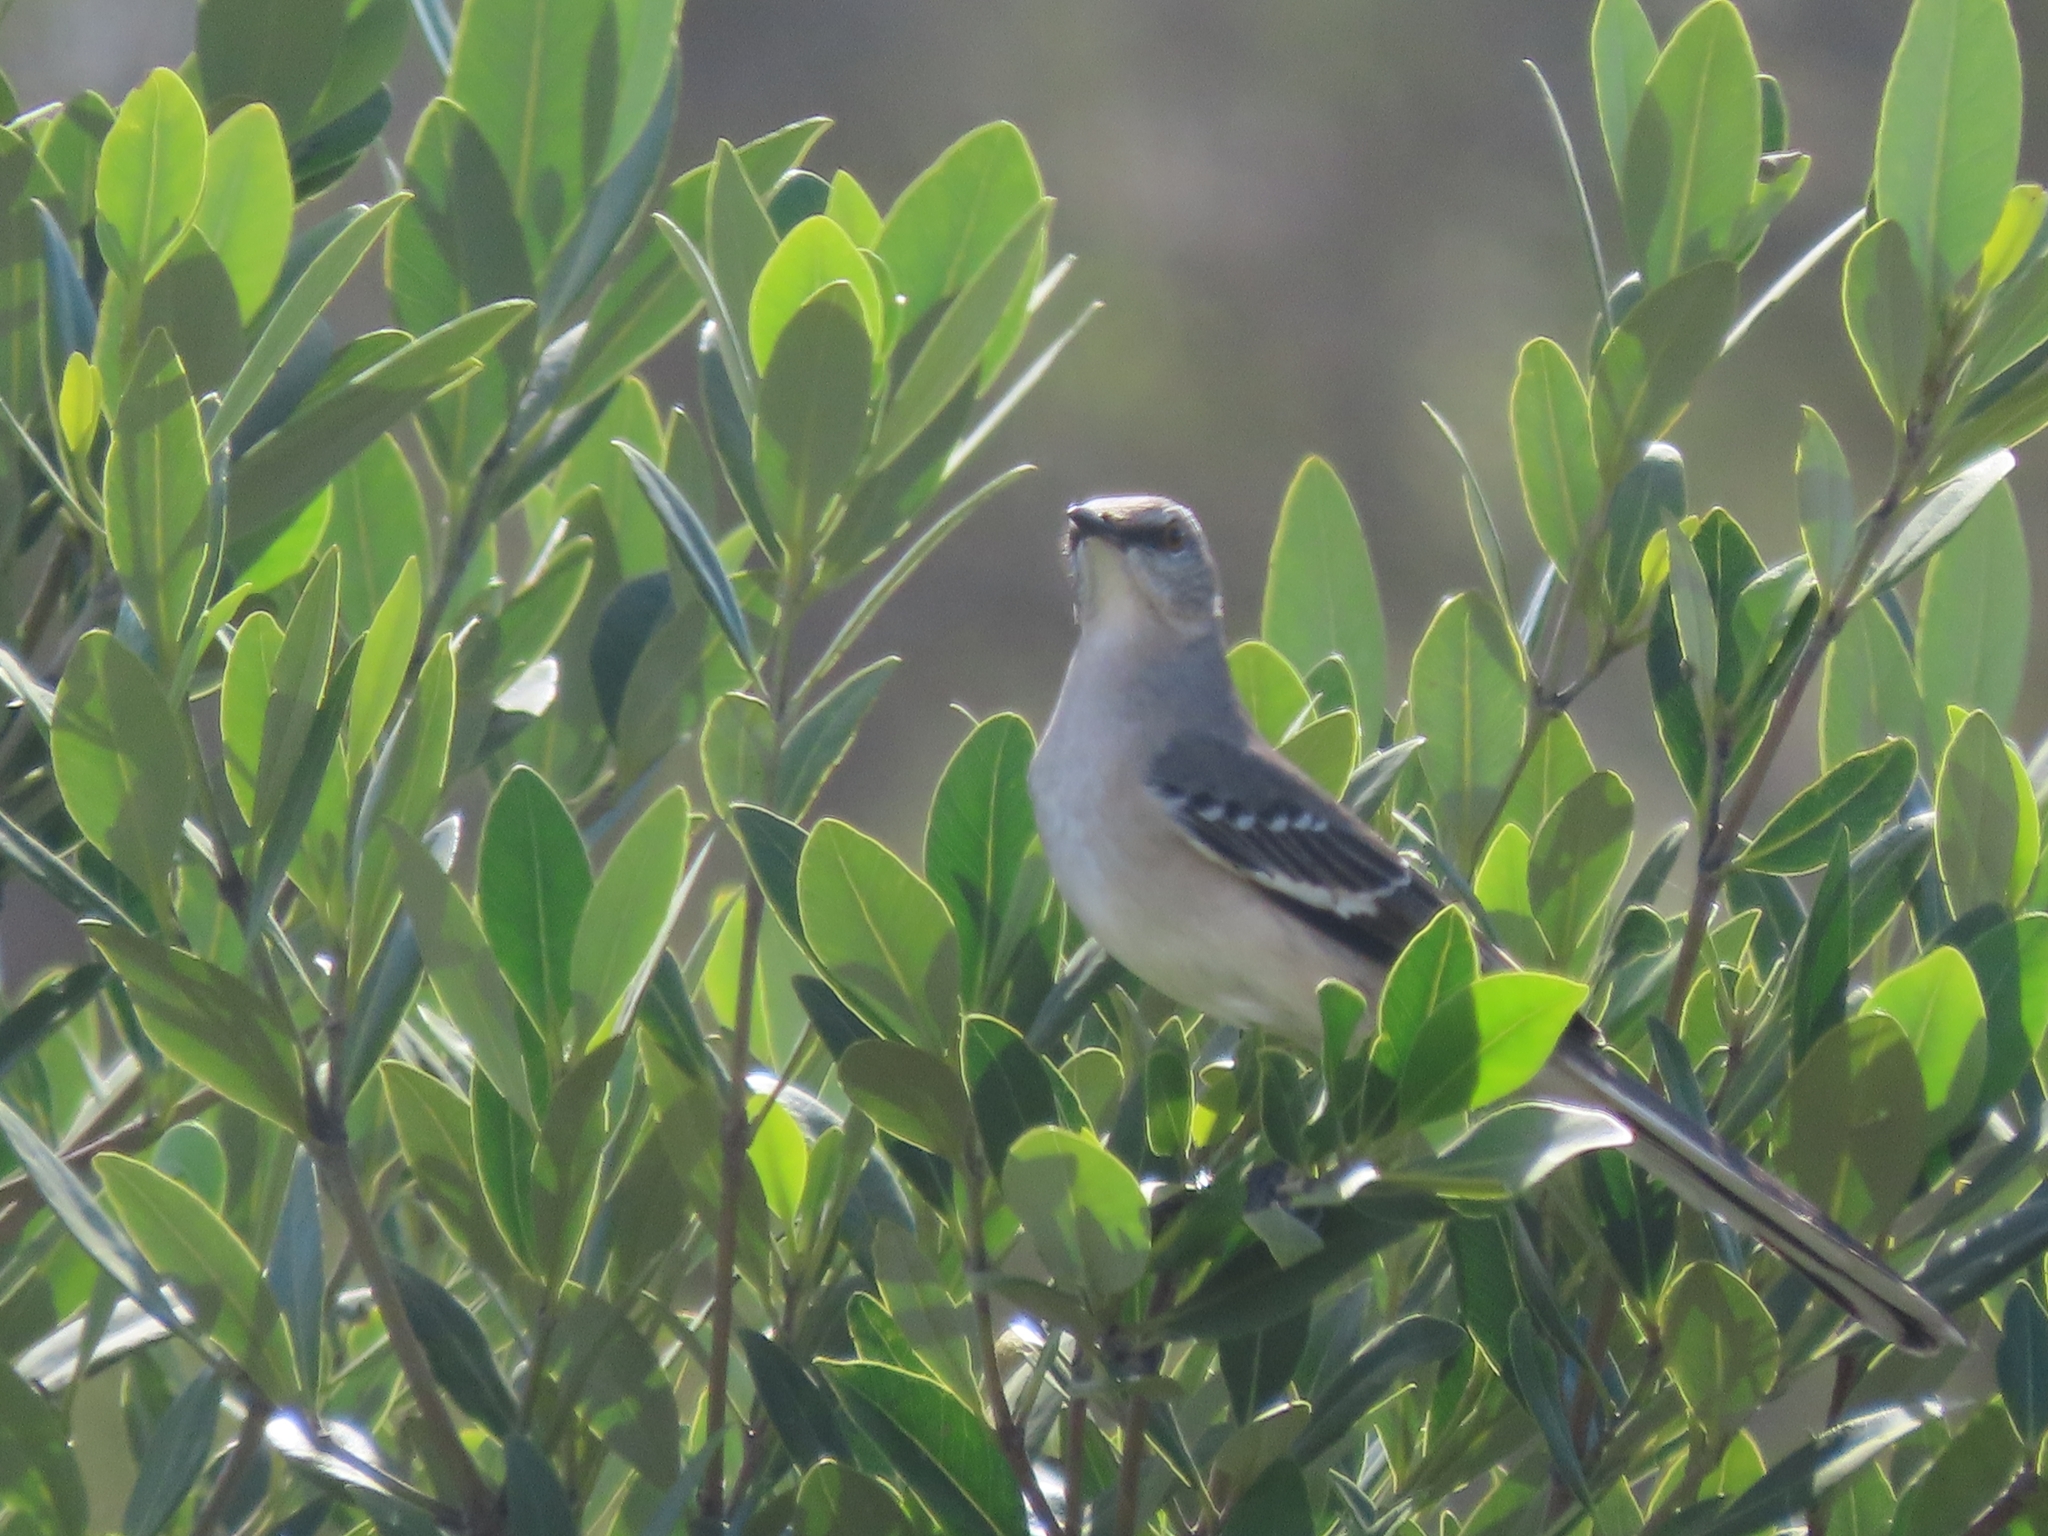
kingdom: Animalia
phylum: Chordata
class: Aves
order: Passeriformes
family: Mimidae
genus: Mimus
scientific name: Mimus polyglottos
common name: Northern mockingbird
